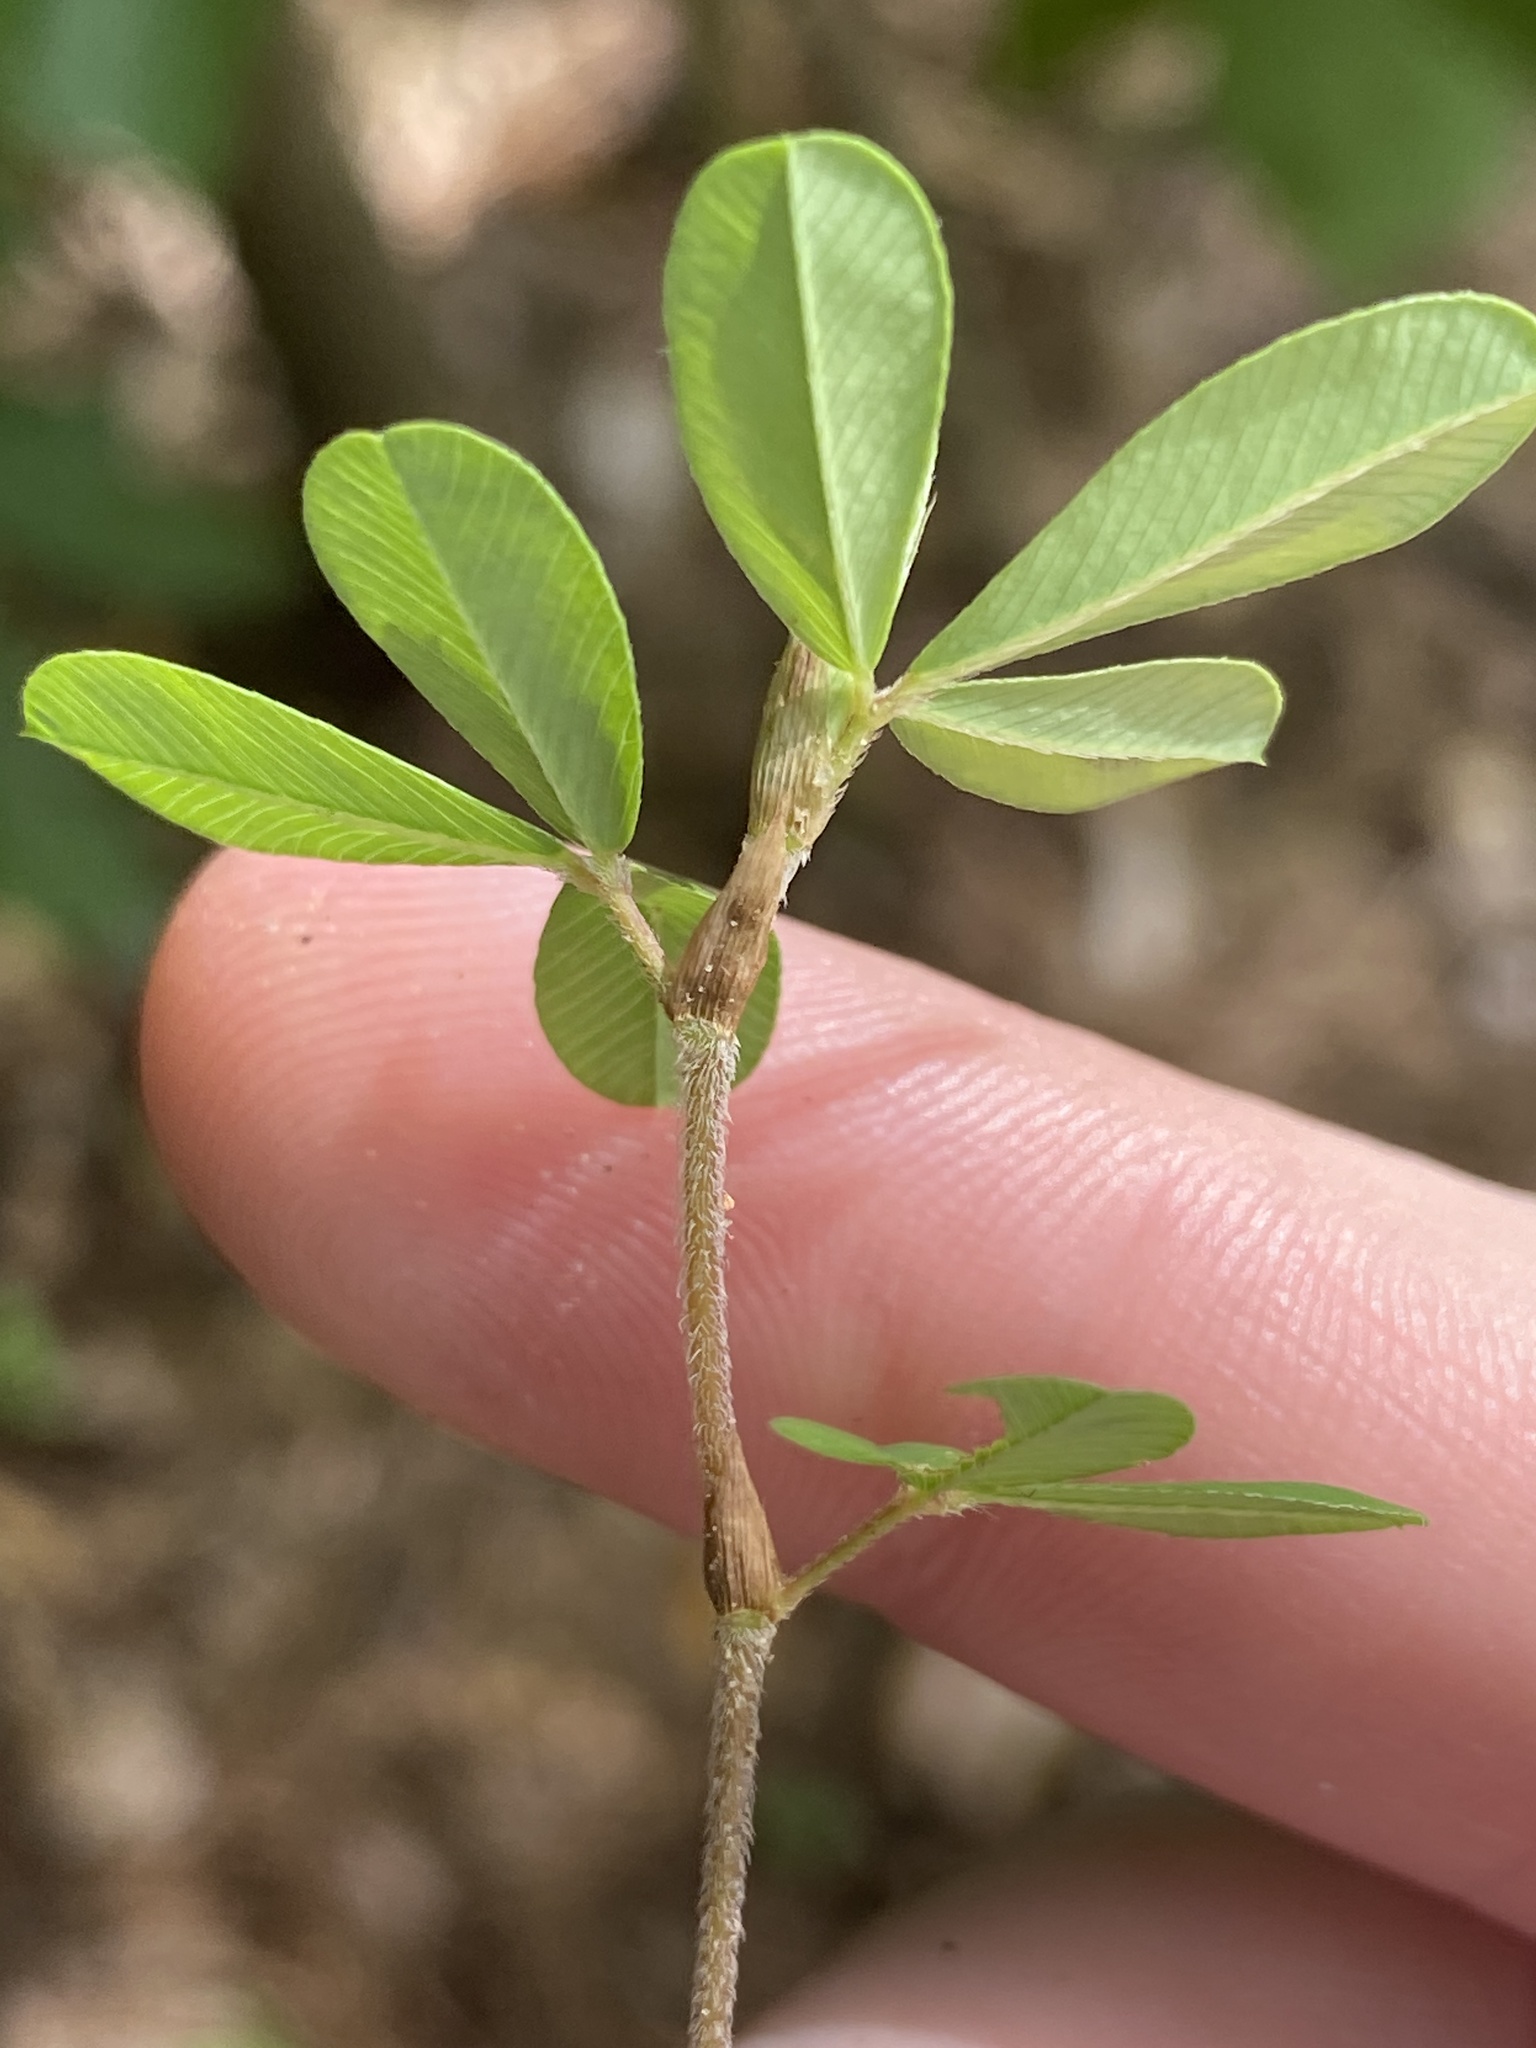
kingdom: Plantae
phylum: Tracheophyta
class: Magnoliopsida
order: Fabales
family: Fabaceae
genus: Kummerowia
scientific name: Kummerowia striata
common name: Japanese clover
